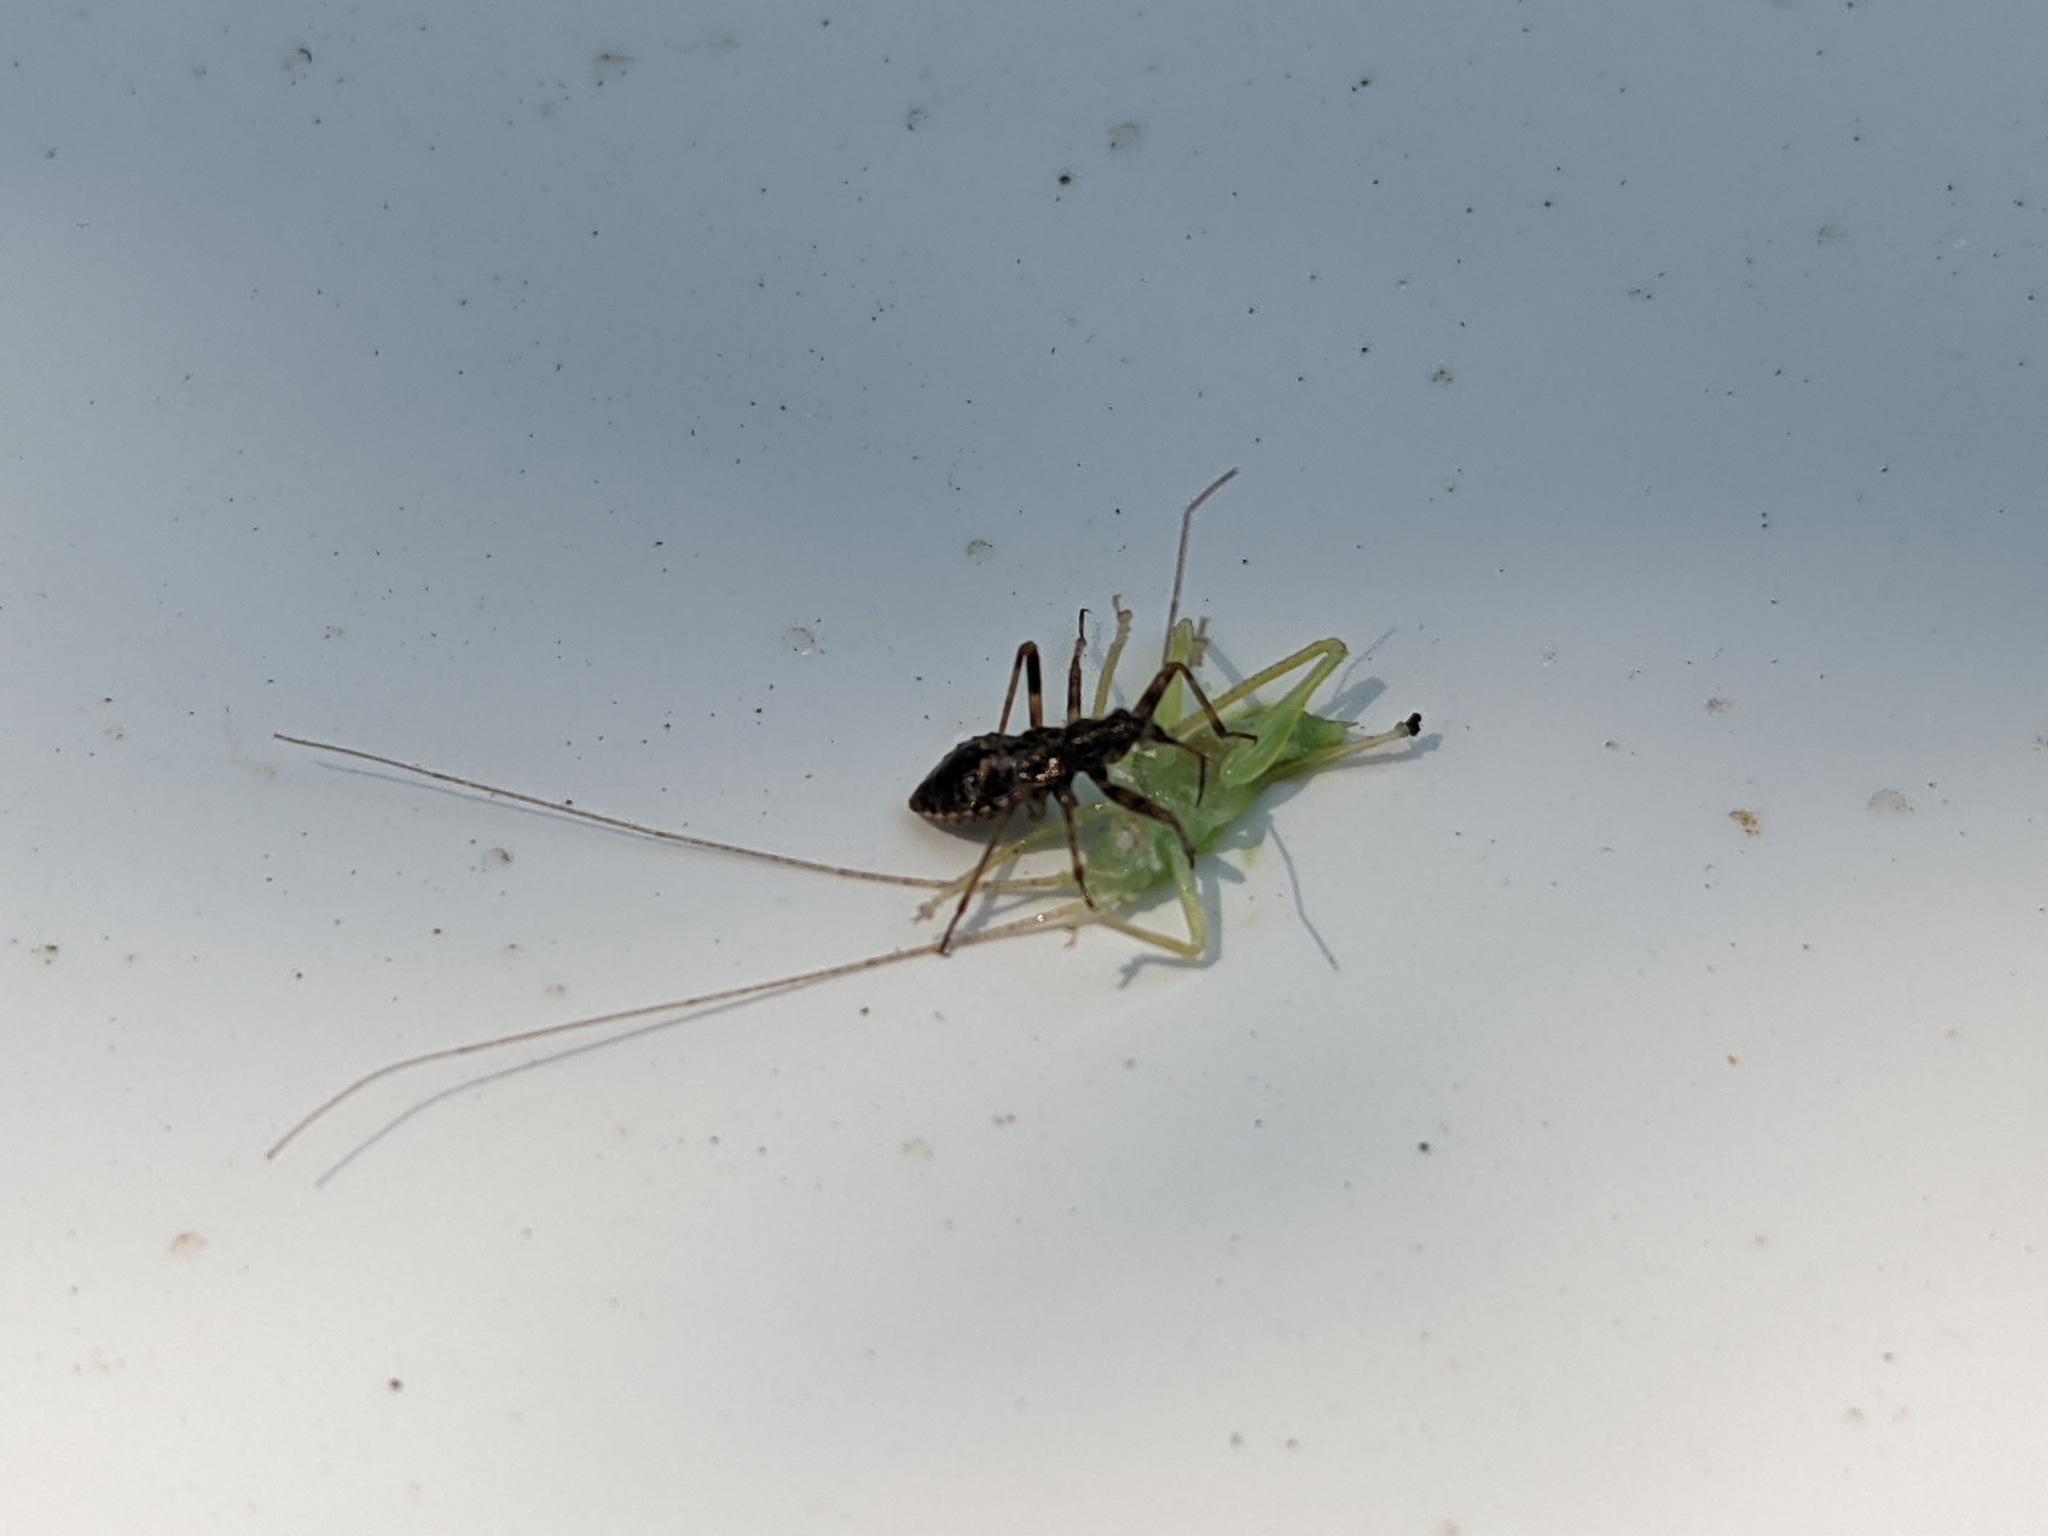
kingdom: Animalia
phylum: Arthropoda
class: Insecta
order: Hemiptera
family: Nabidae
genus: Himacerus
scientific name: Himacerus apterus
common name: Tree damsel bug
